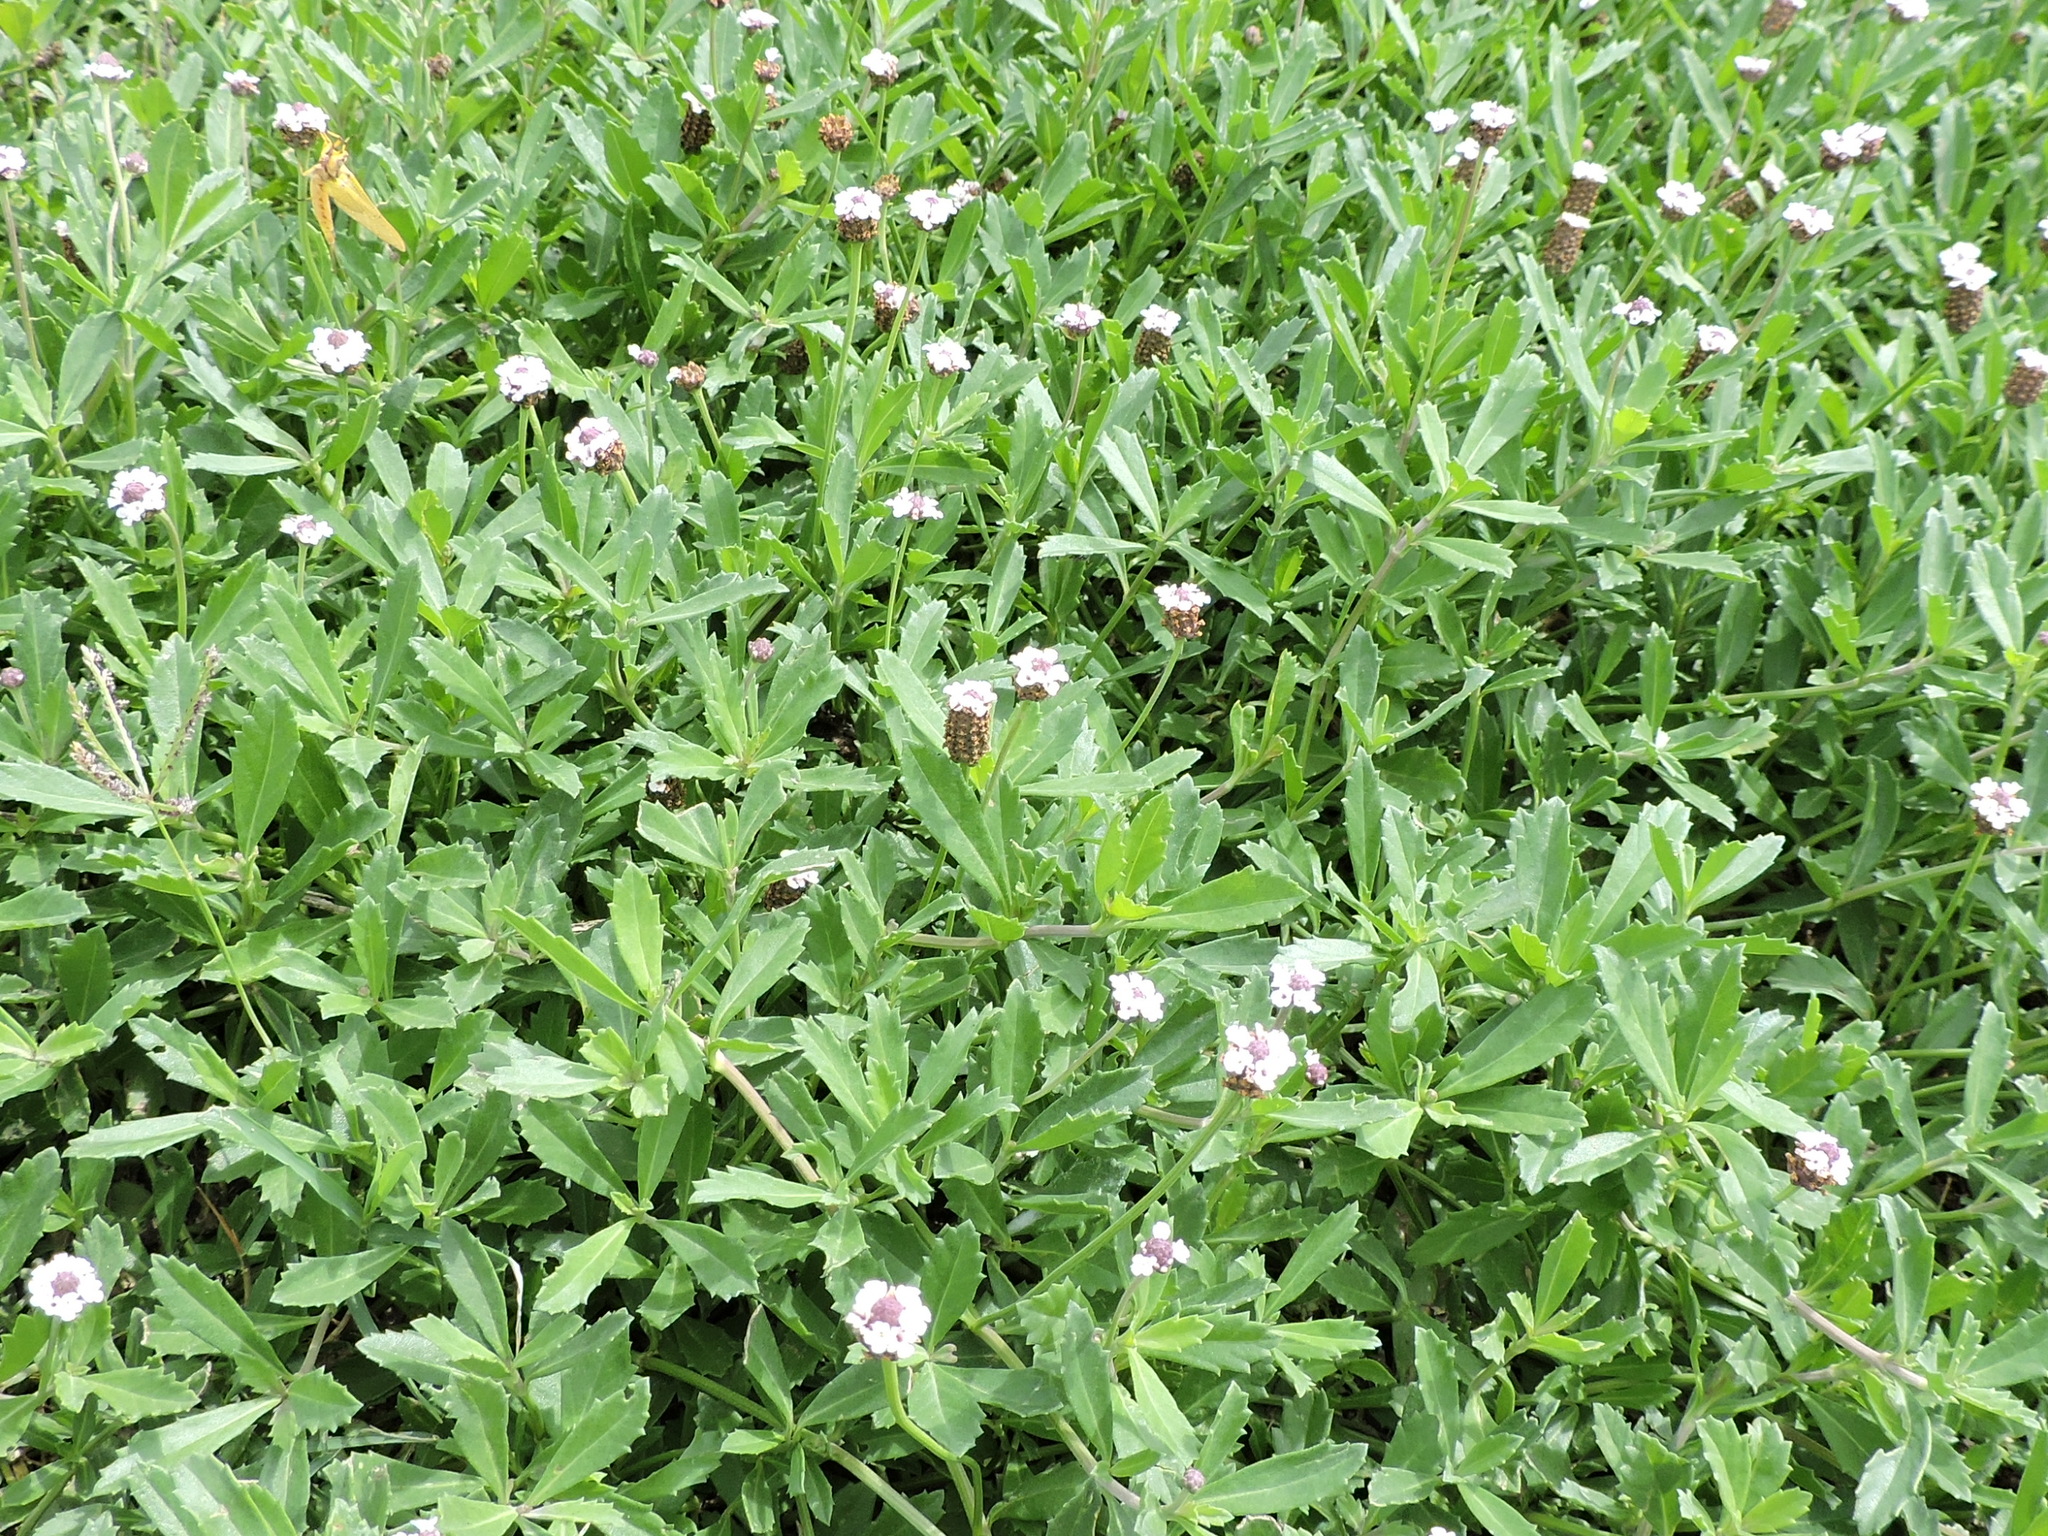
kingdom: Plantae
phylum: Tracheophyta
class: Magnoliopsida
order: Lamiales
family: Verbenaceae
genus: Phyla
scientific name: Phyla nodiflora
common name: Frogfruit
